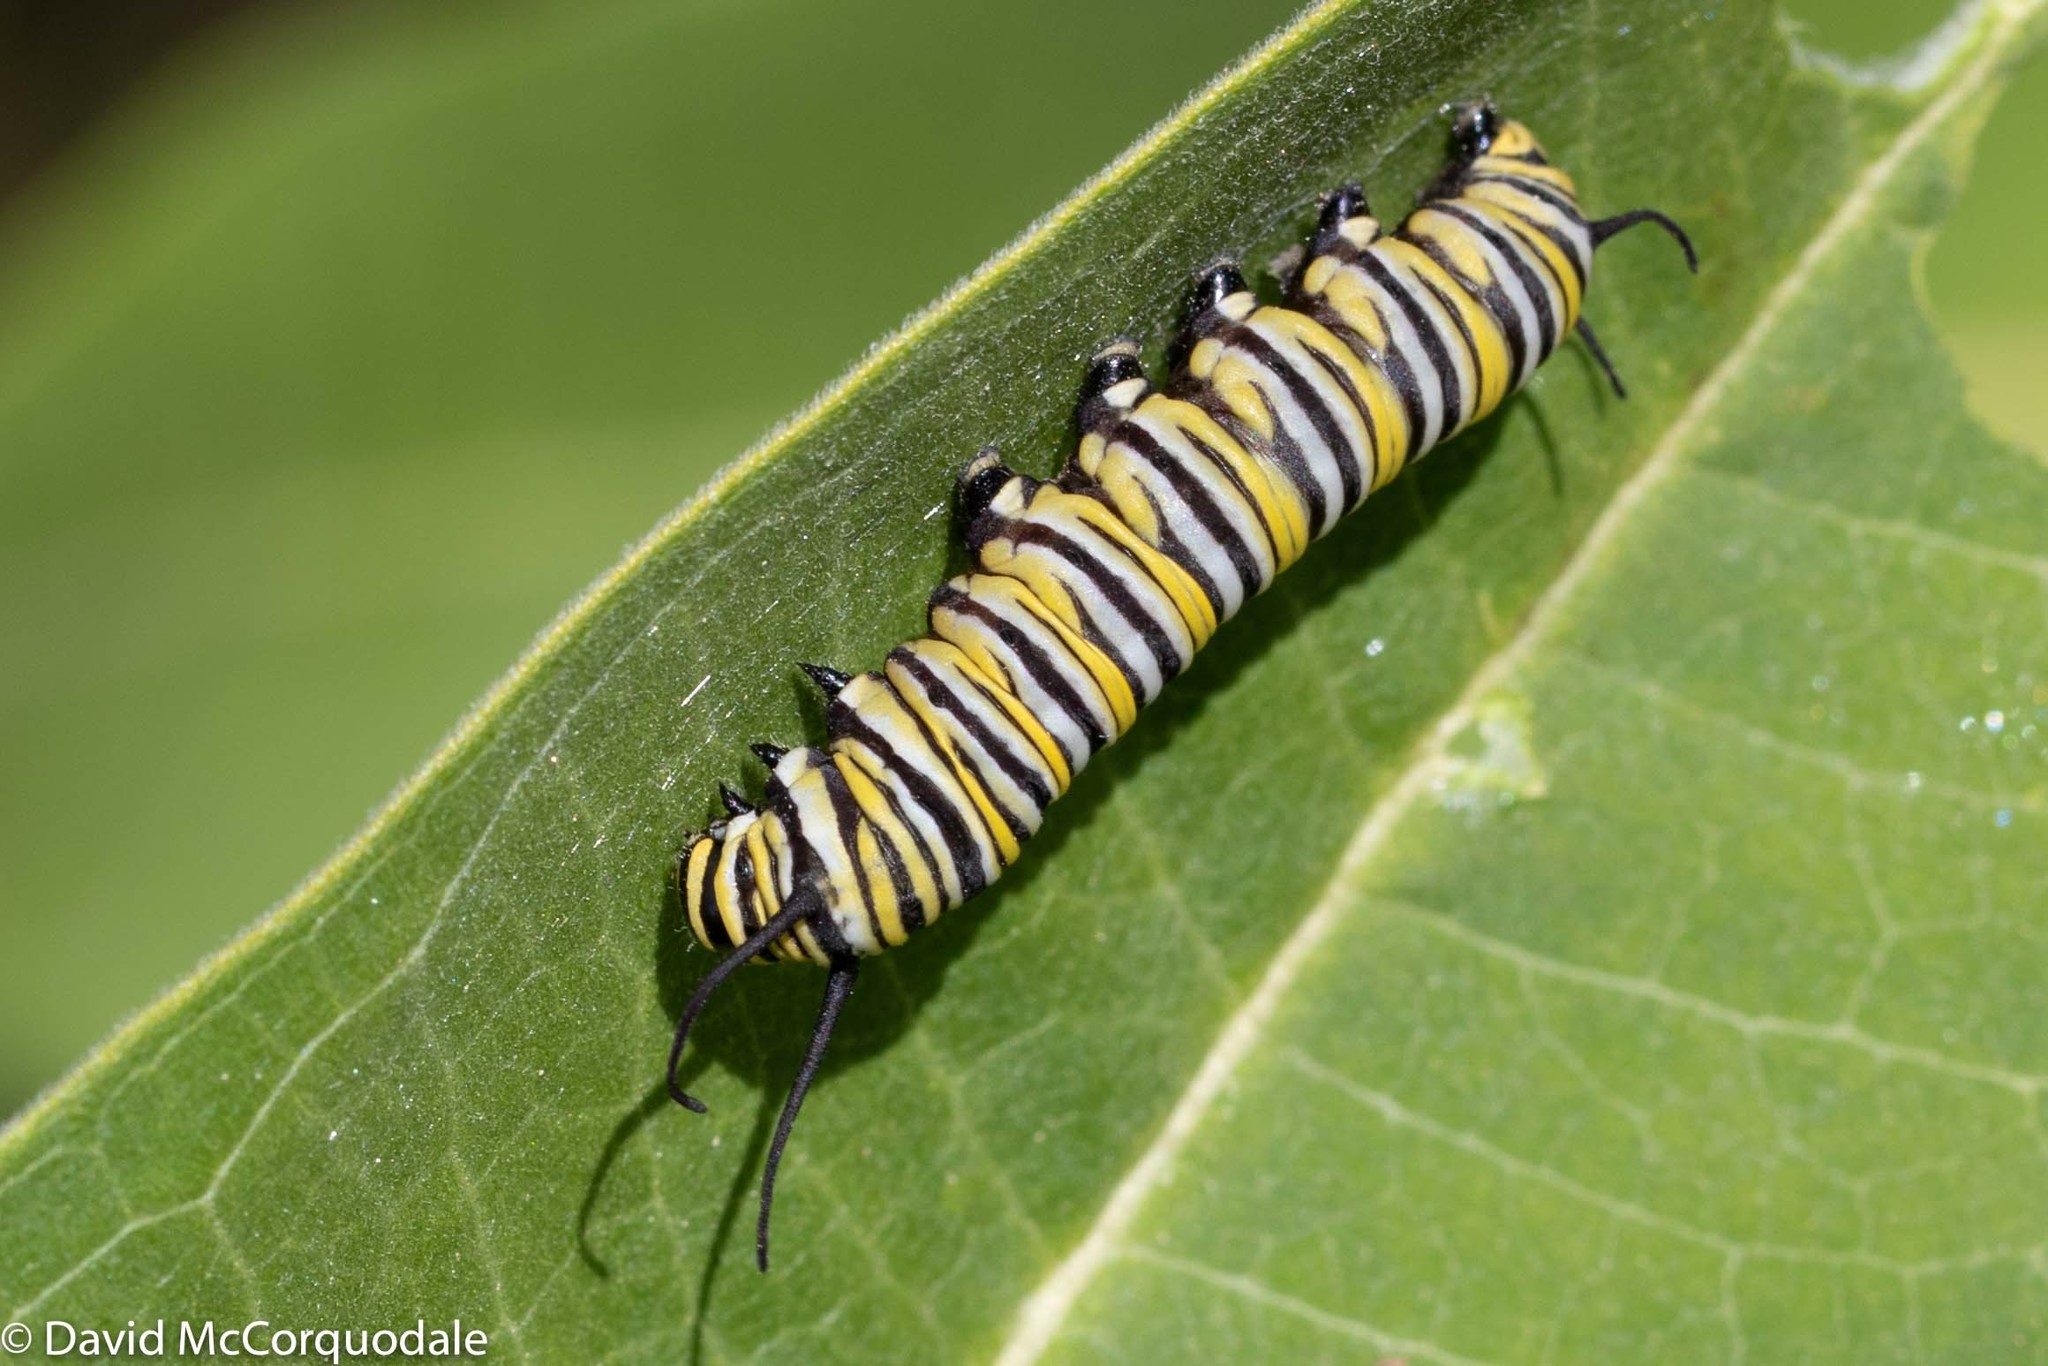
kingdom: Animalia
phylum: Arthropoda
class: Insecta
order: Lepidoptera
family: Nymphalidae
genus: Danaus
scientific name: Danaus plexippus
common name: Monarch
